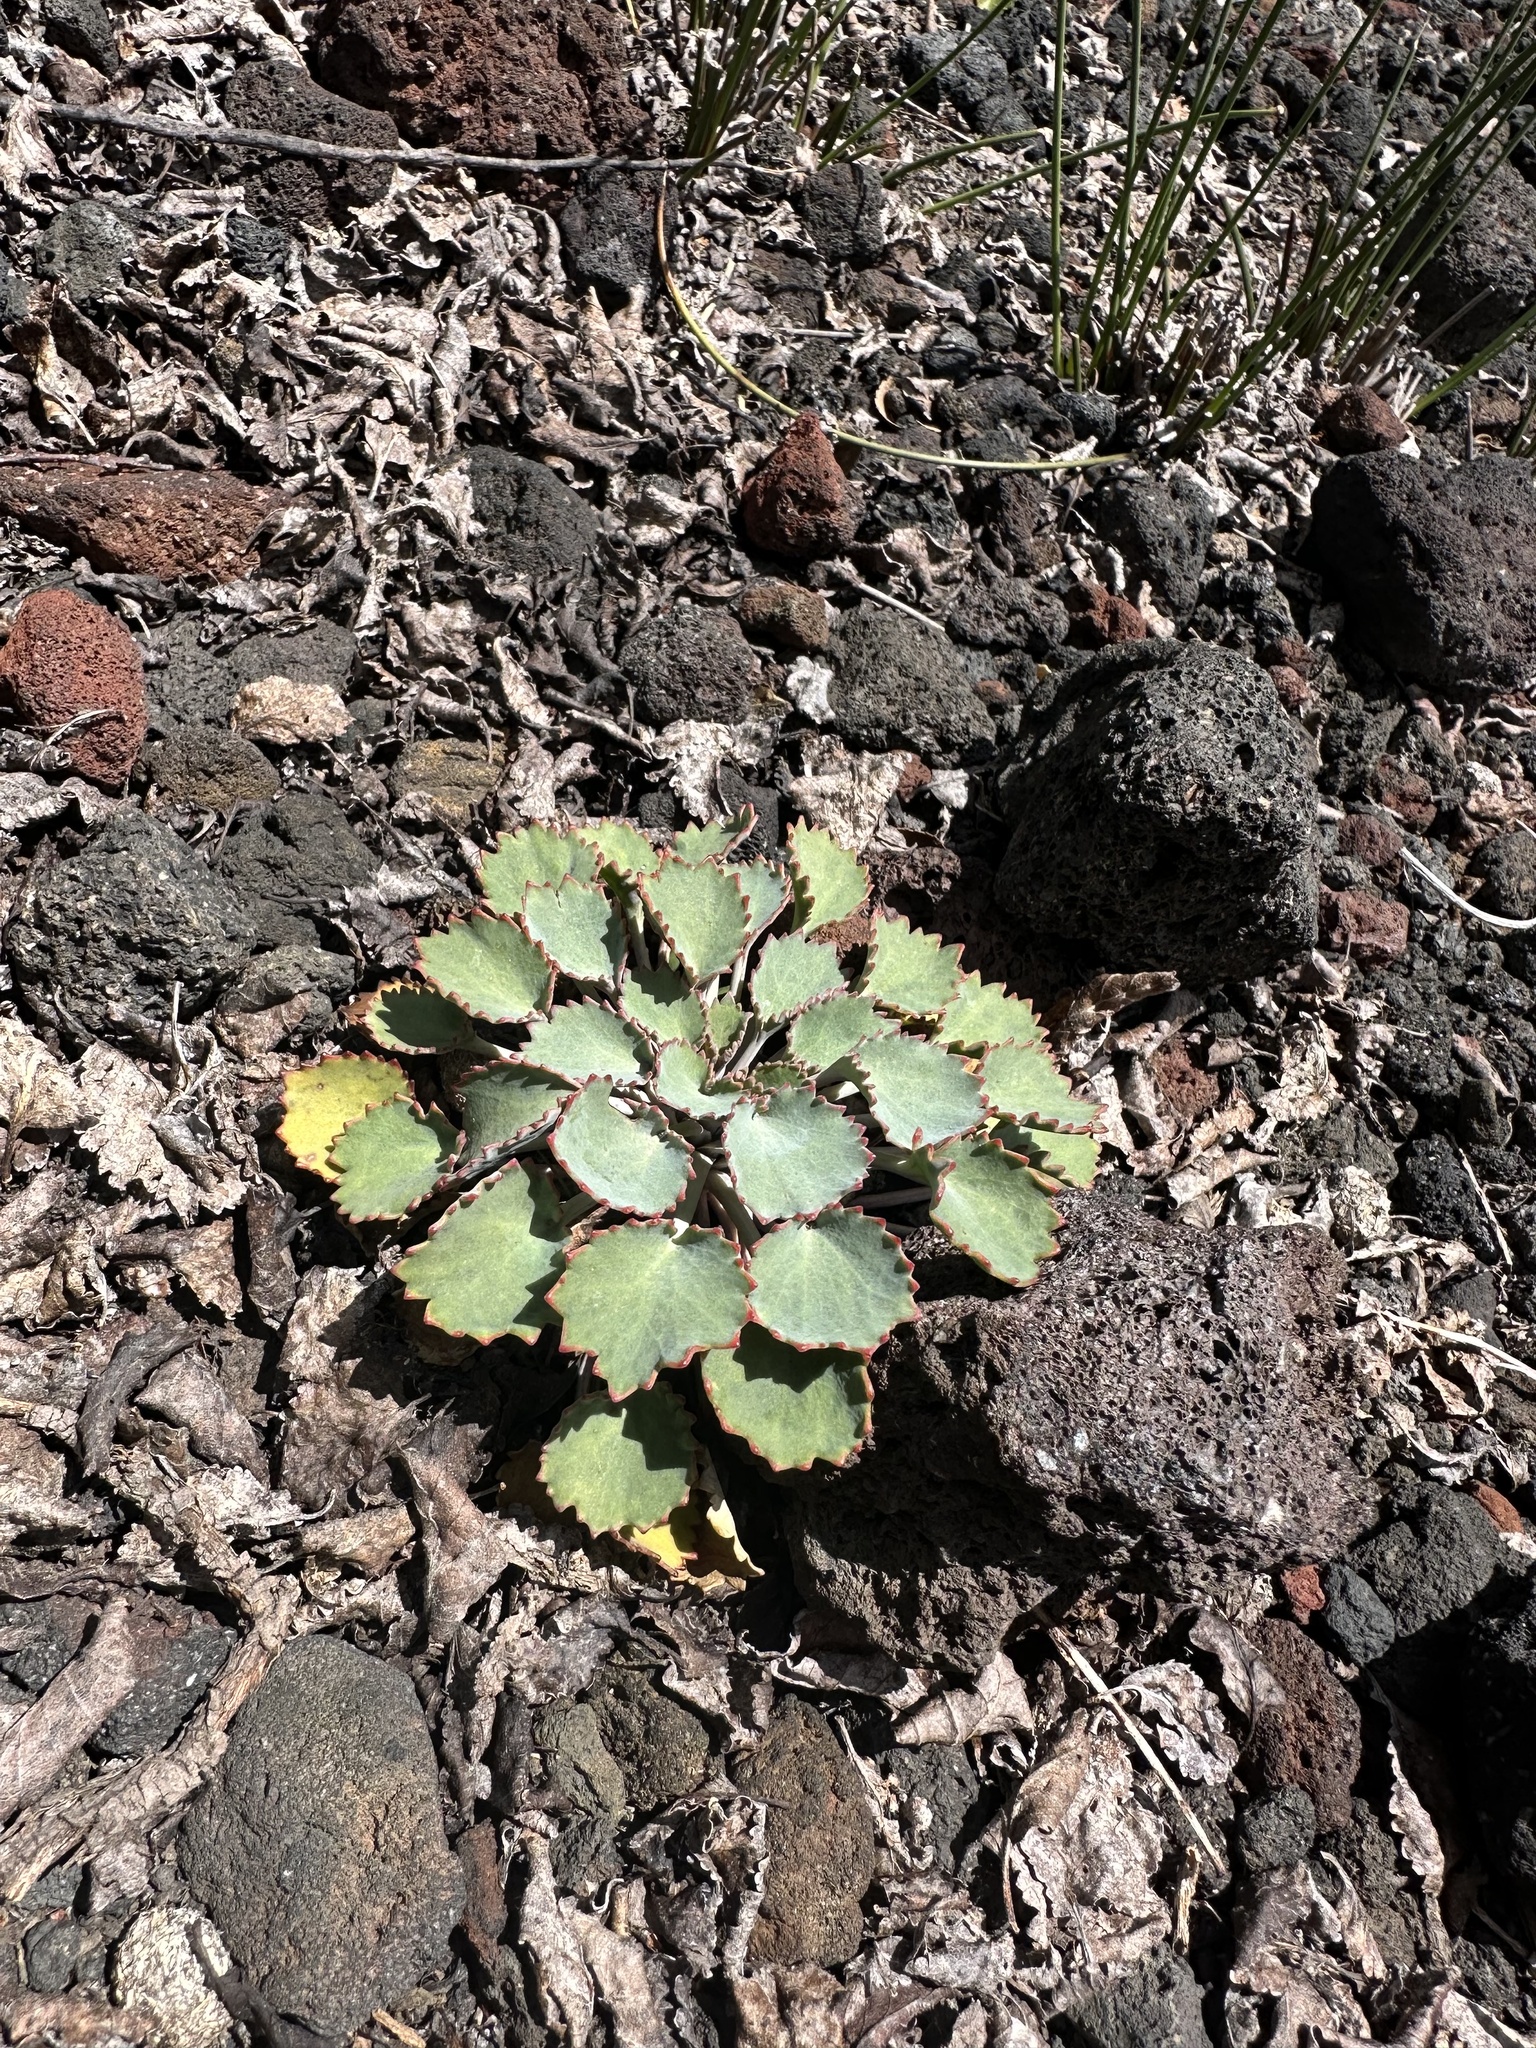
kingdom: Plantae
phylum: Tracheophyta
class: Magnoliopsida
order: Apiales
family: Apiaceae
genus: Pozoa
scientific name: Pozoa coriacea
